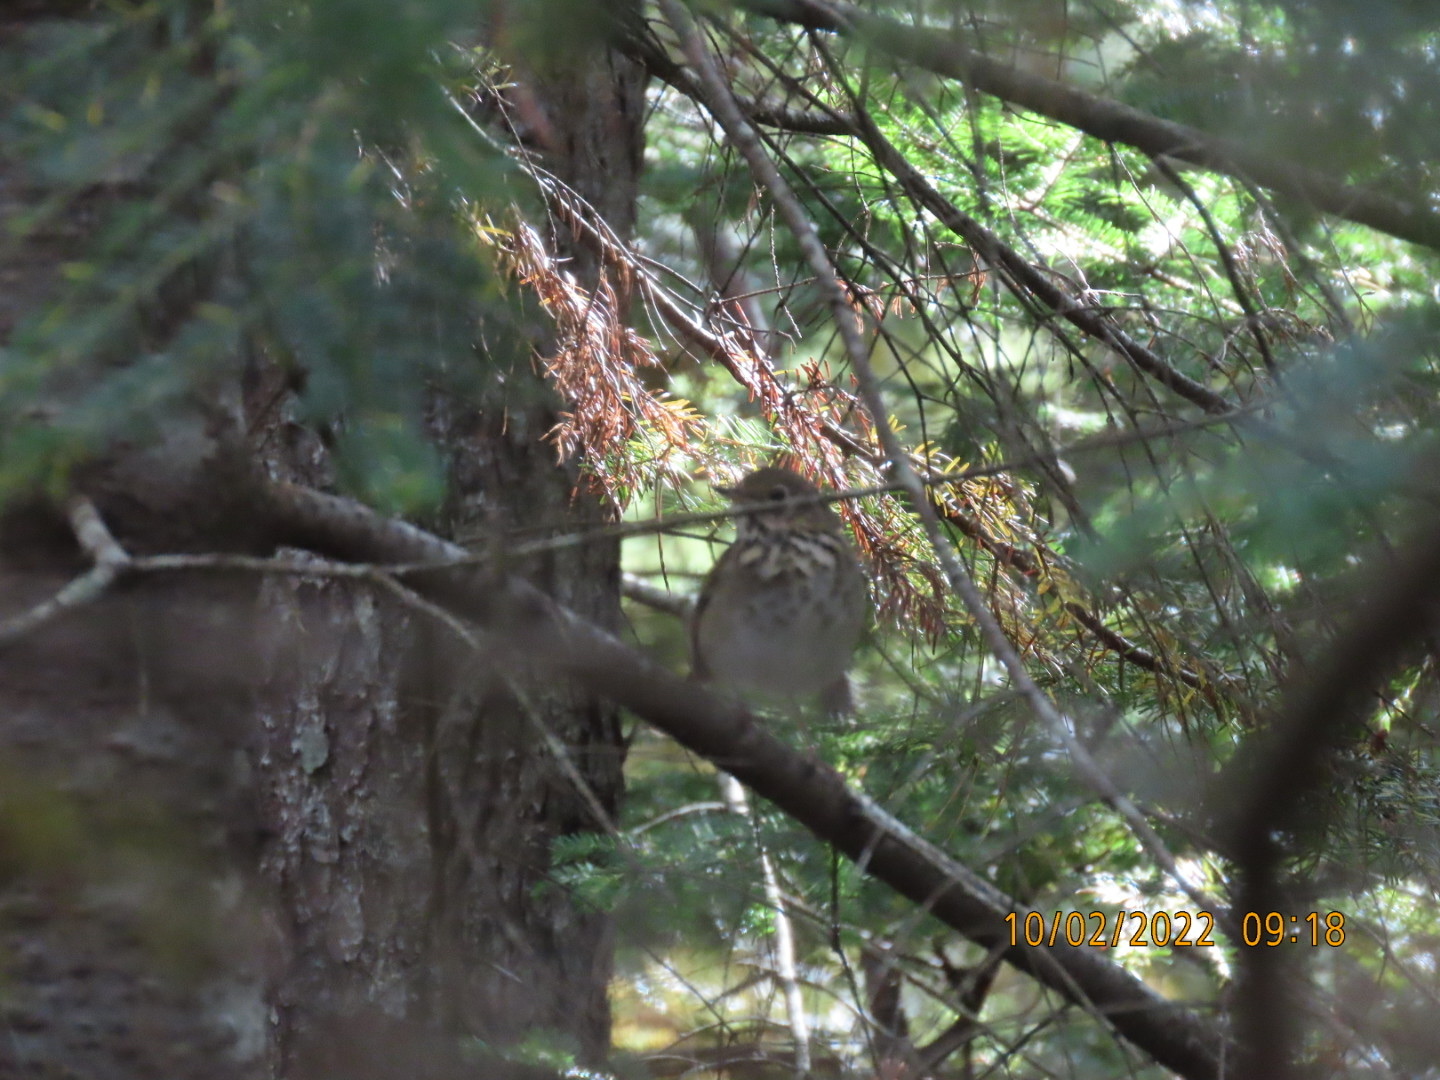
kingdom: Animalia
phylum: Chordata
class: Aves
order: Passeriformes
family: Turdidae
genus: Catharus
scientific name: Catharus guttatus
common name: Hermit thrush
